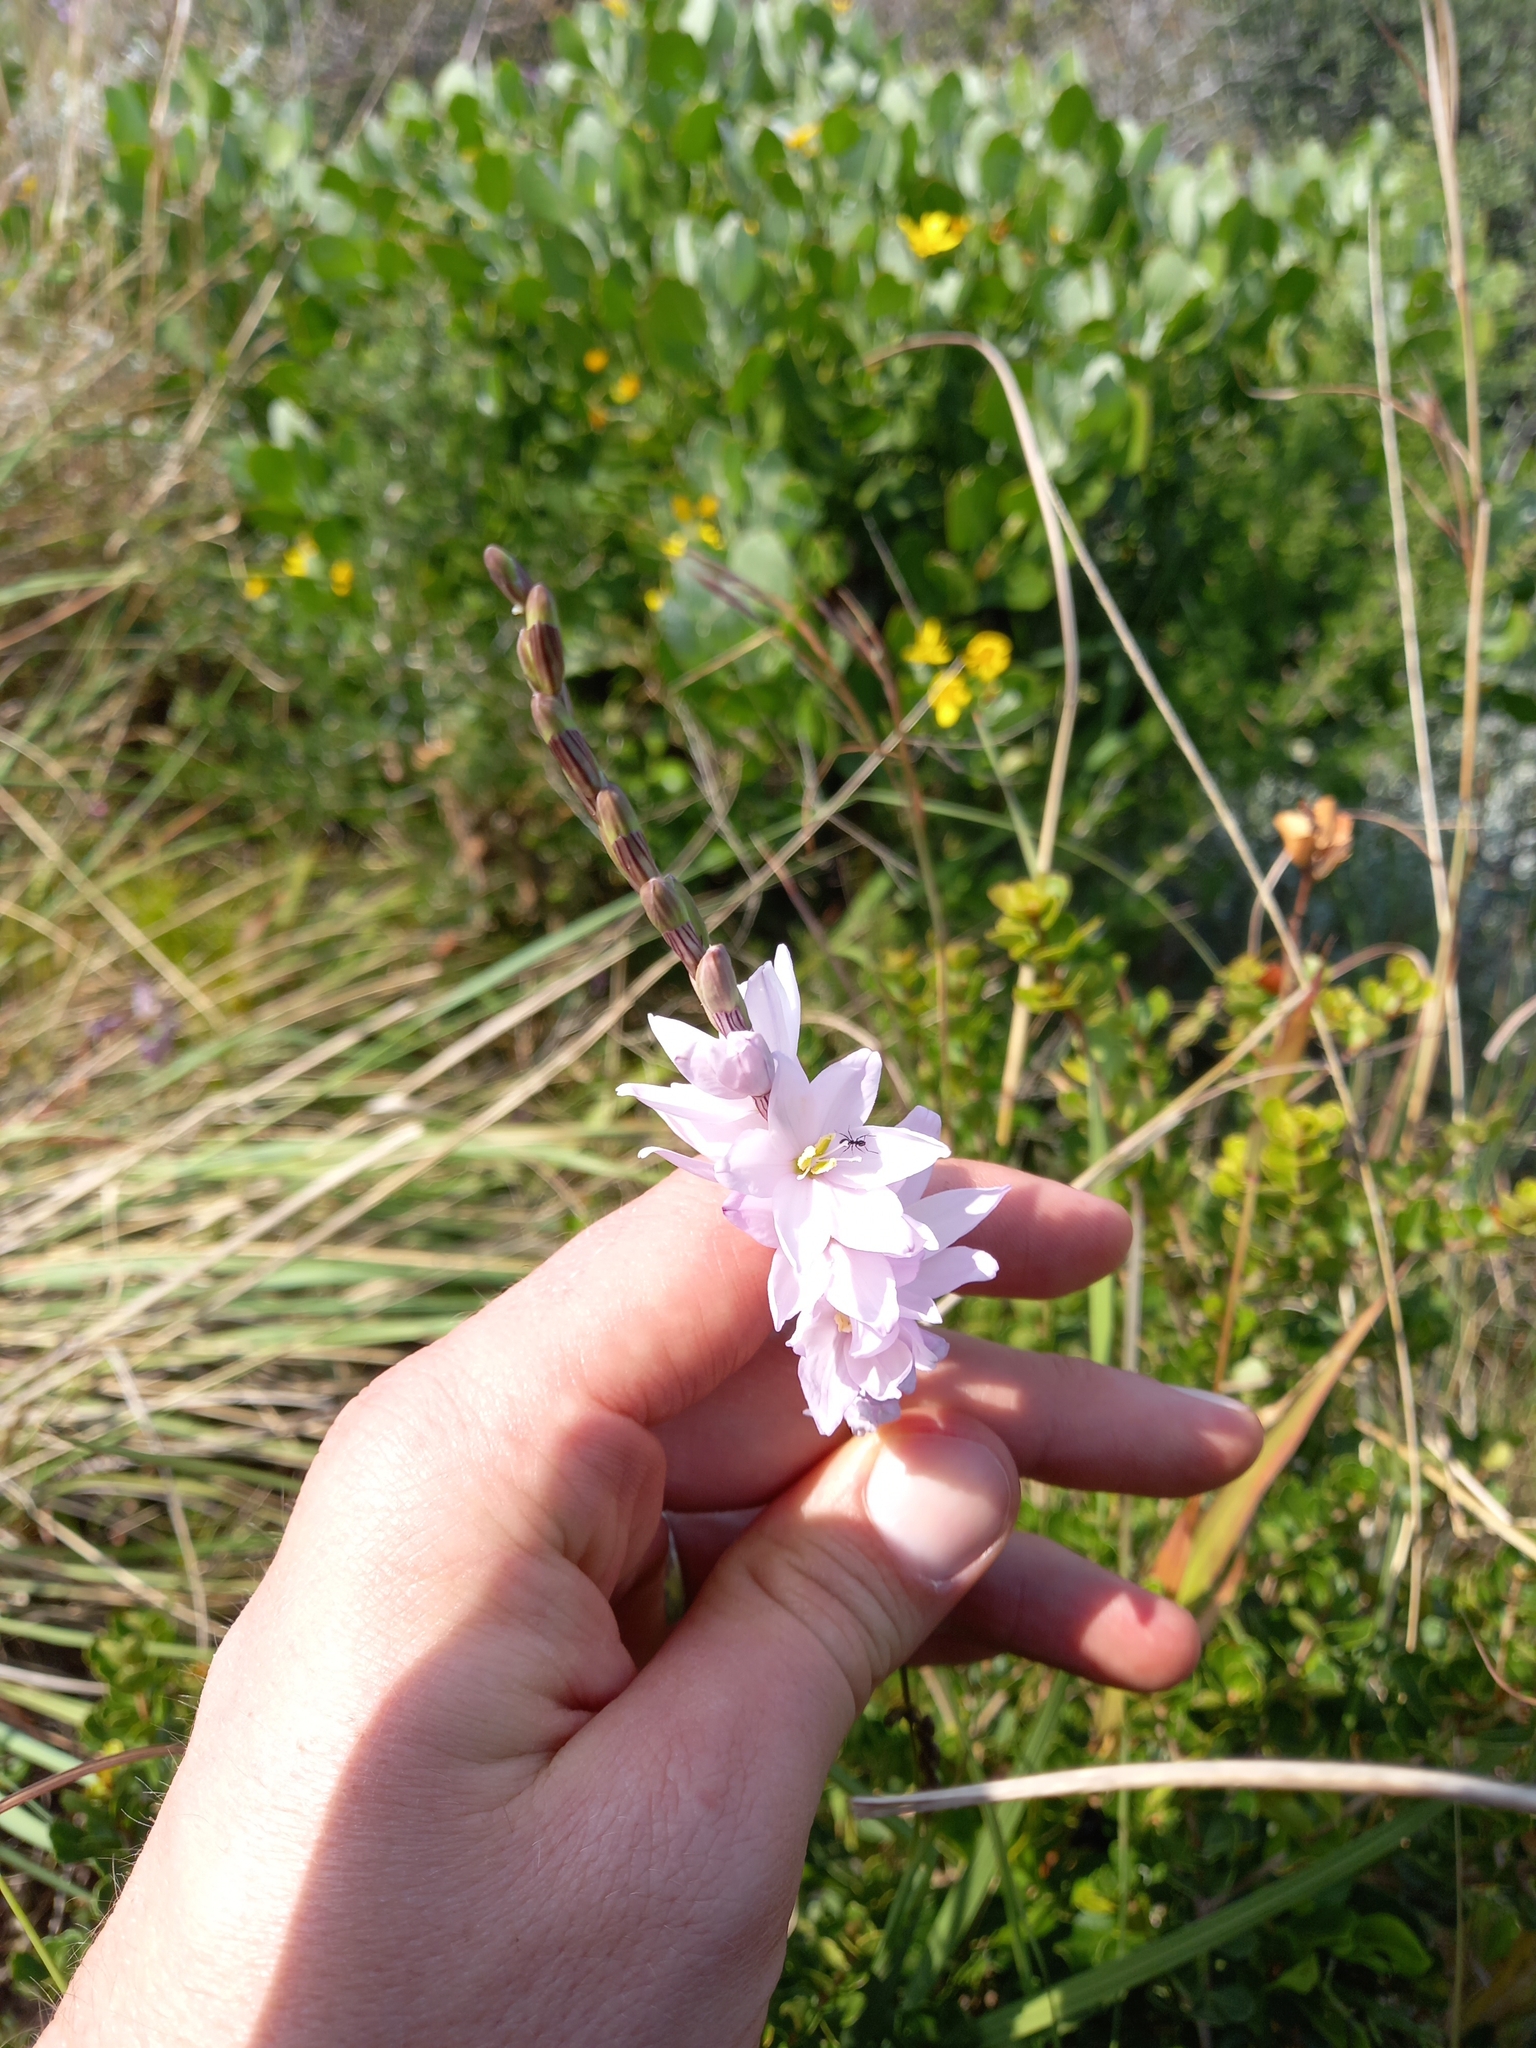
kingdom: Plantae
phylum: Tracheophyta
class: Liliopsida
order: Asparagales
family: Iridaceae
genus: Ixia
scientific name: Ixia orientalis
